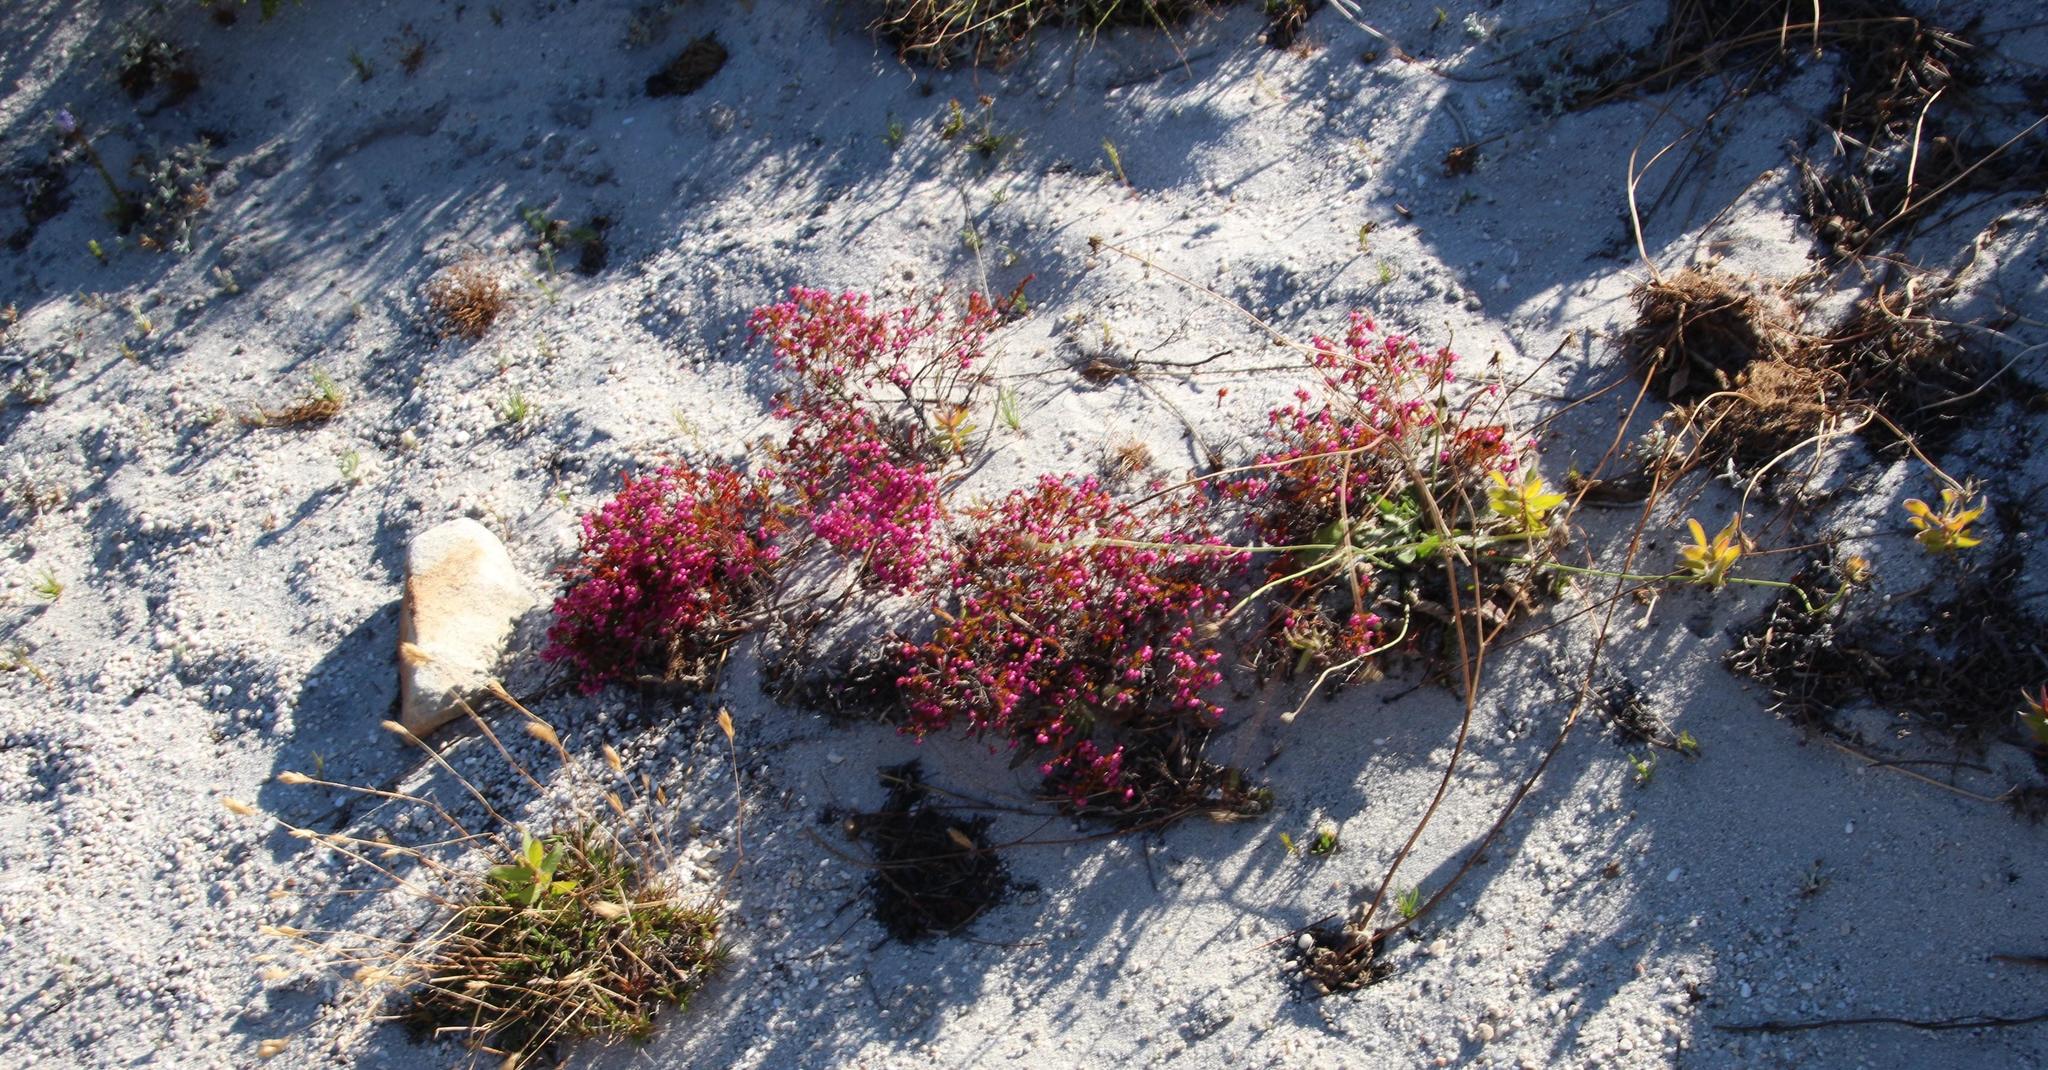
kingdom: Plantae
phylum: Tracheophyta
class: Magnoliopsida
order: Ericales
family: Ericaceae
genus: Erica
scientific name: Erica multumbellifera
